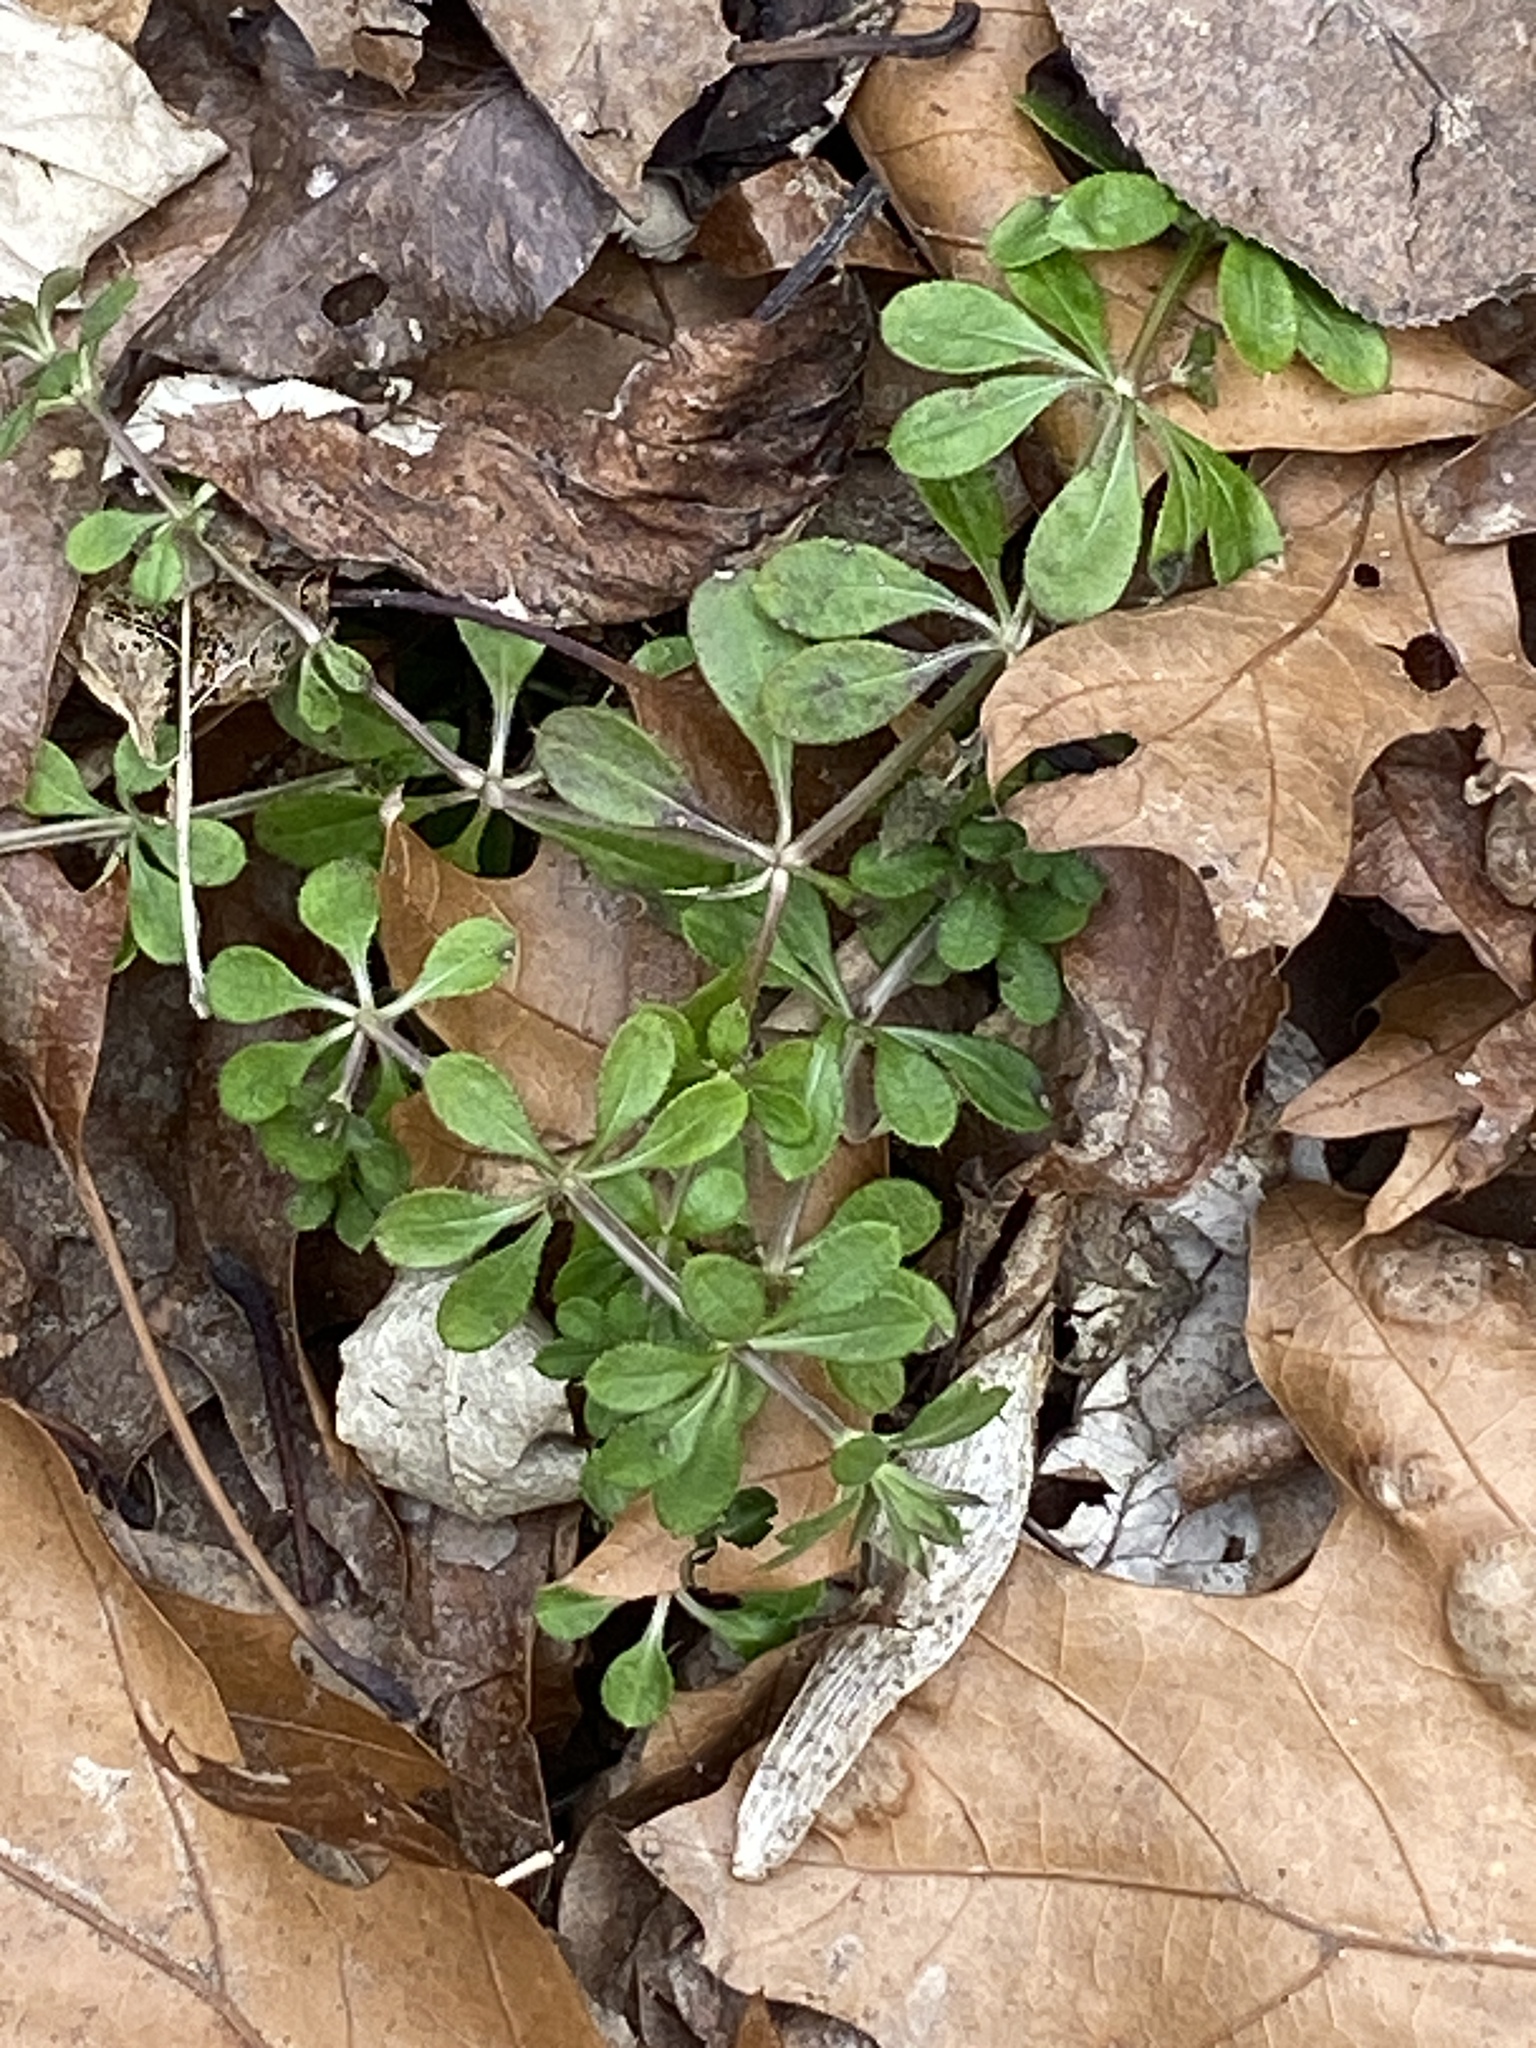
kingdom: Plantae
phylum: Tracheophyta
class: Magnoliopsida
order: Gentianales
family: Rubiaceae
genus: Galium
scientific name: Galium aparine
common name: Cleavers
